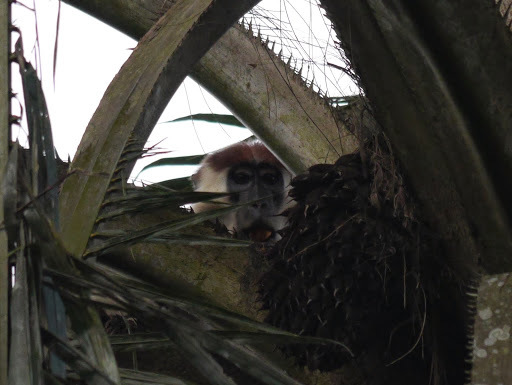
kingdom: Animalia
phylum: Chordata
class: Mammalia
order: Primates
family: Cercopithecidae
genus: Cercocebus
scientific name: Cercocebus torquatus
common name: Collared mangabey
